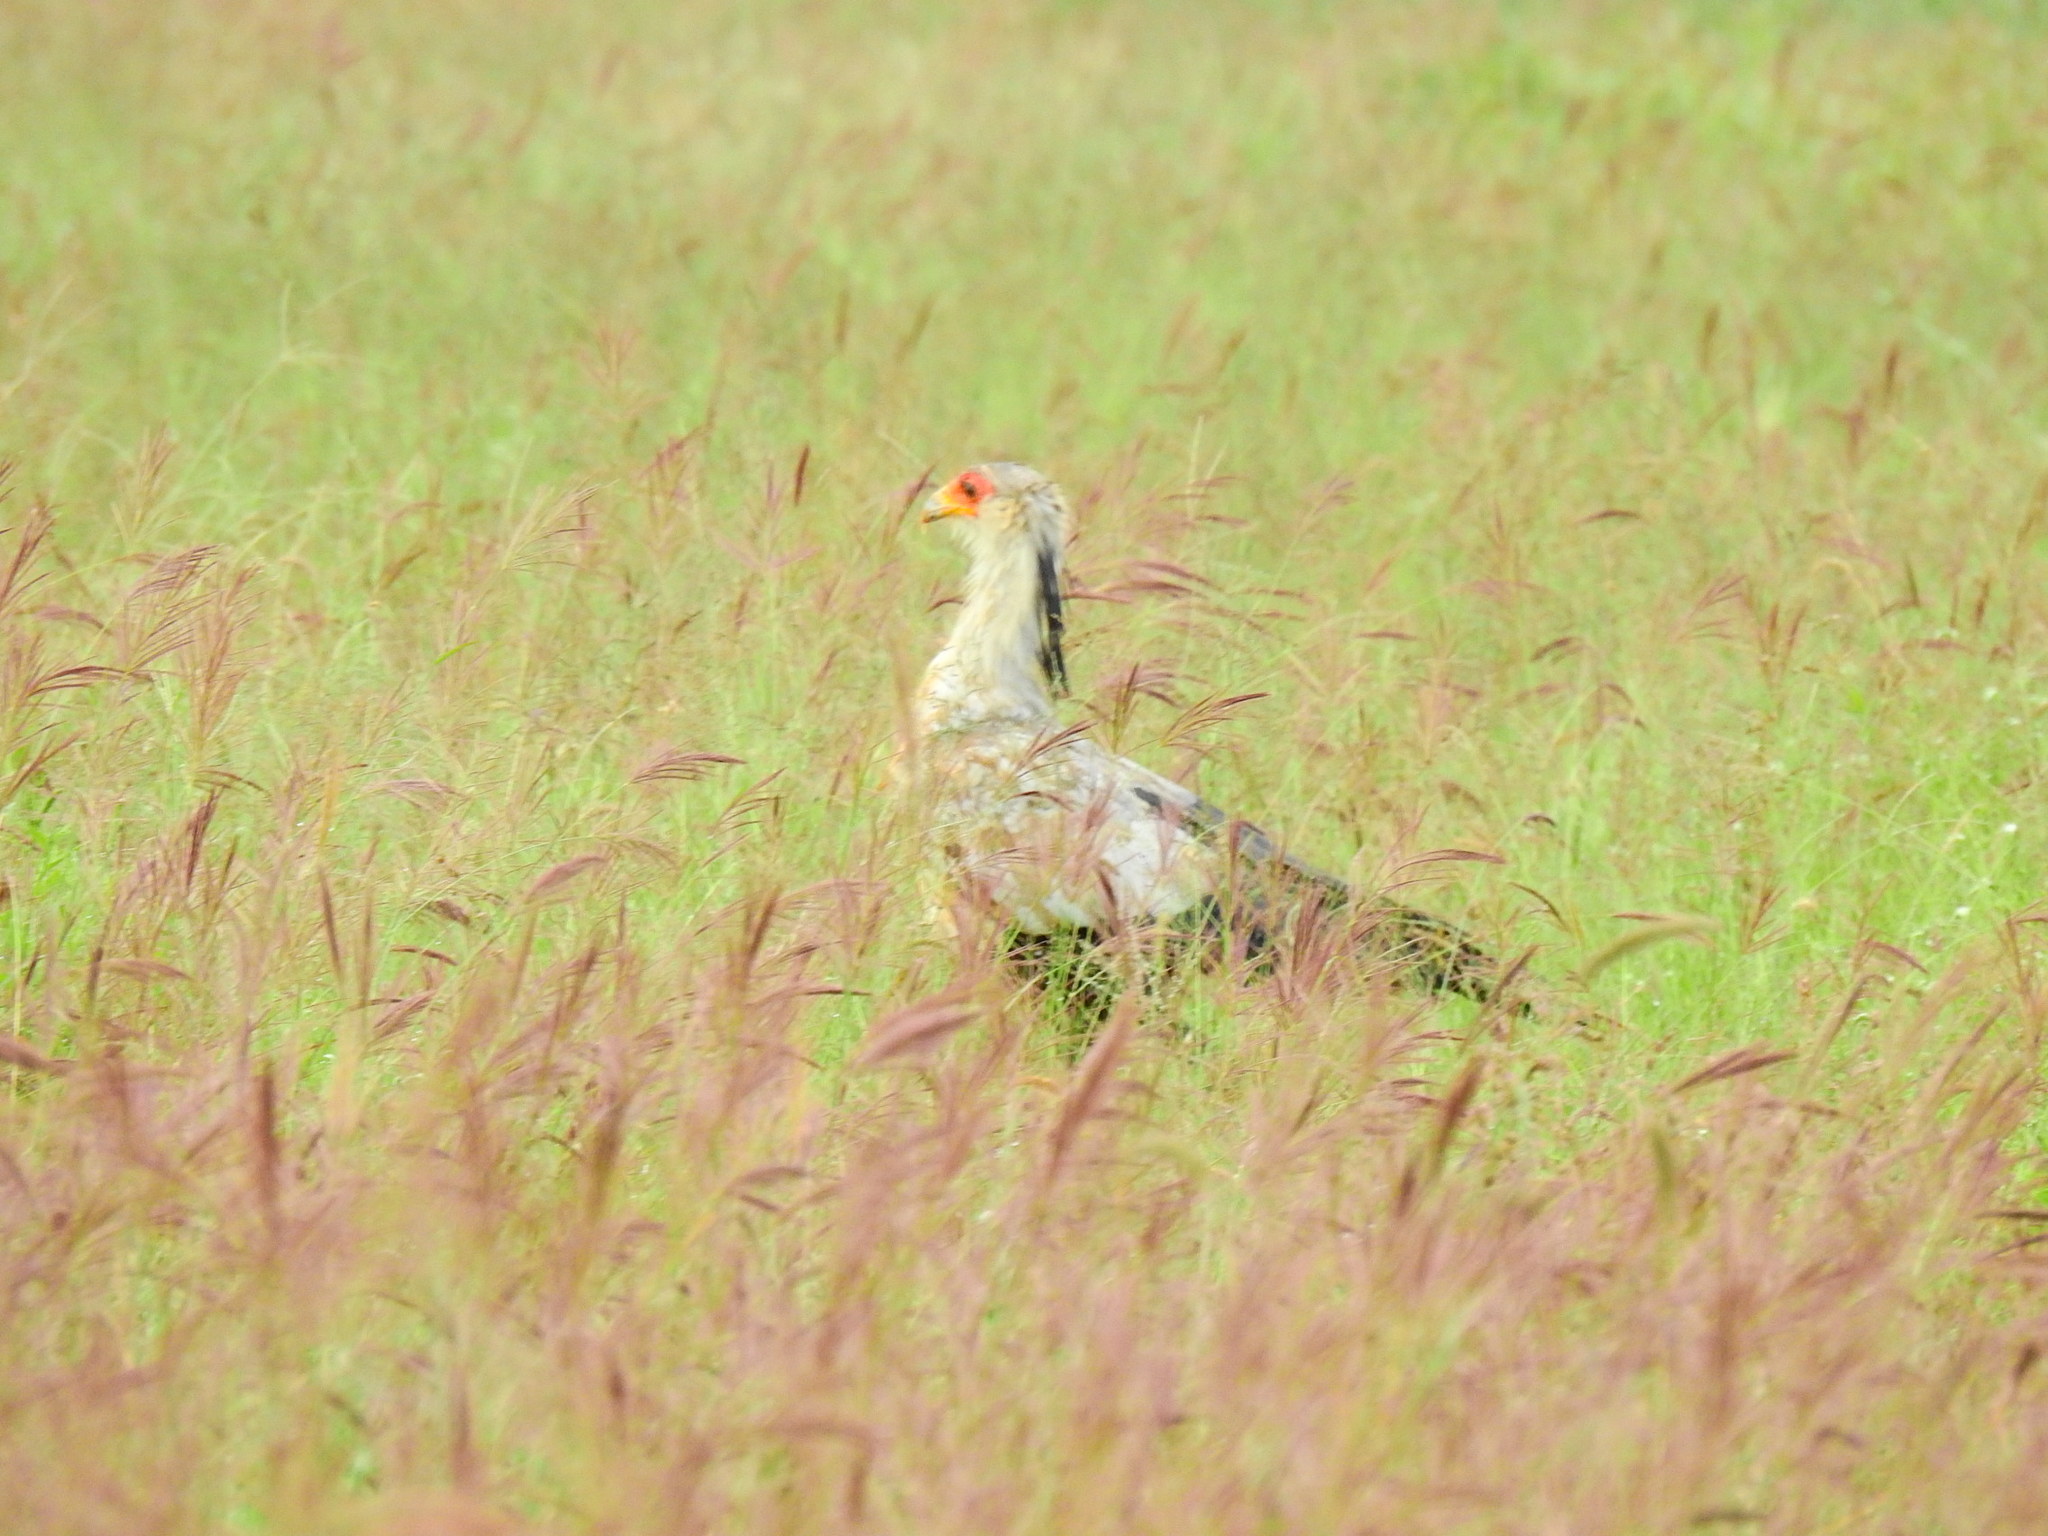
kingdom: Animalia
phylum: Chordata
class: Aves
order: Accipitriformes
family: Sagittariidae
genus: Sagittarius
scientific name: Sagittarius serpentarius
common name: Secretarybird
